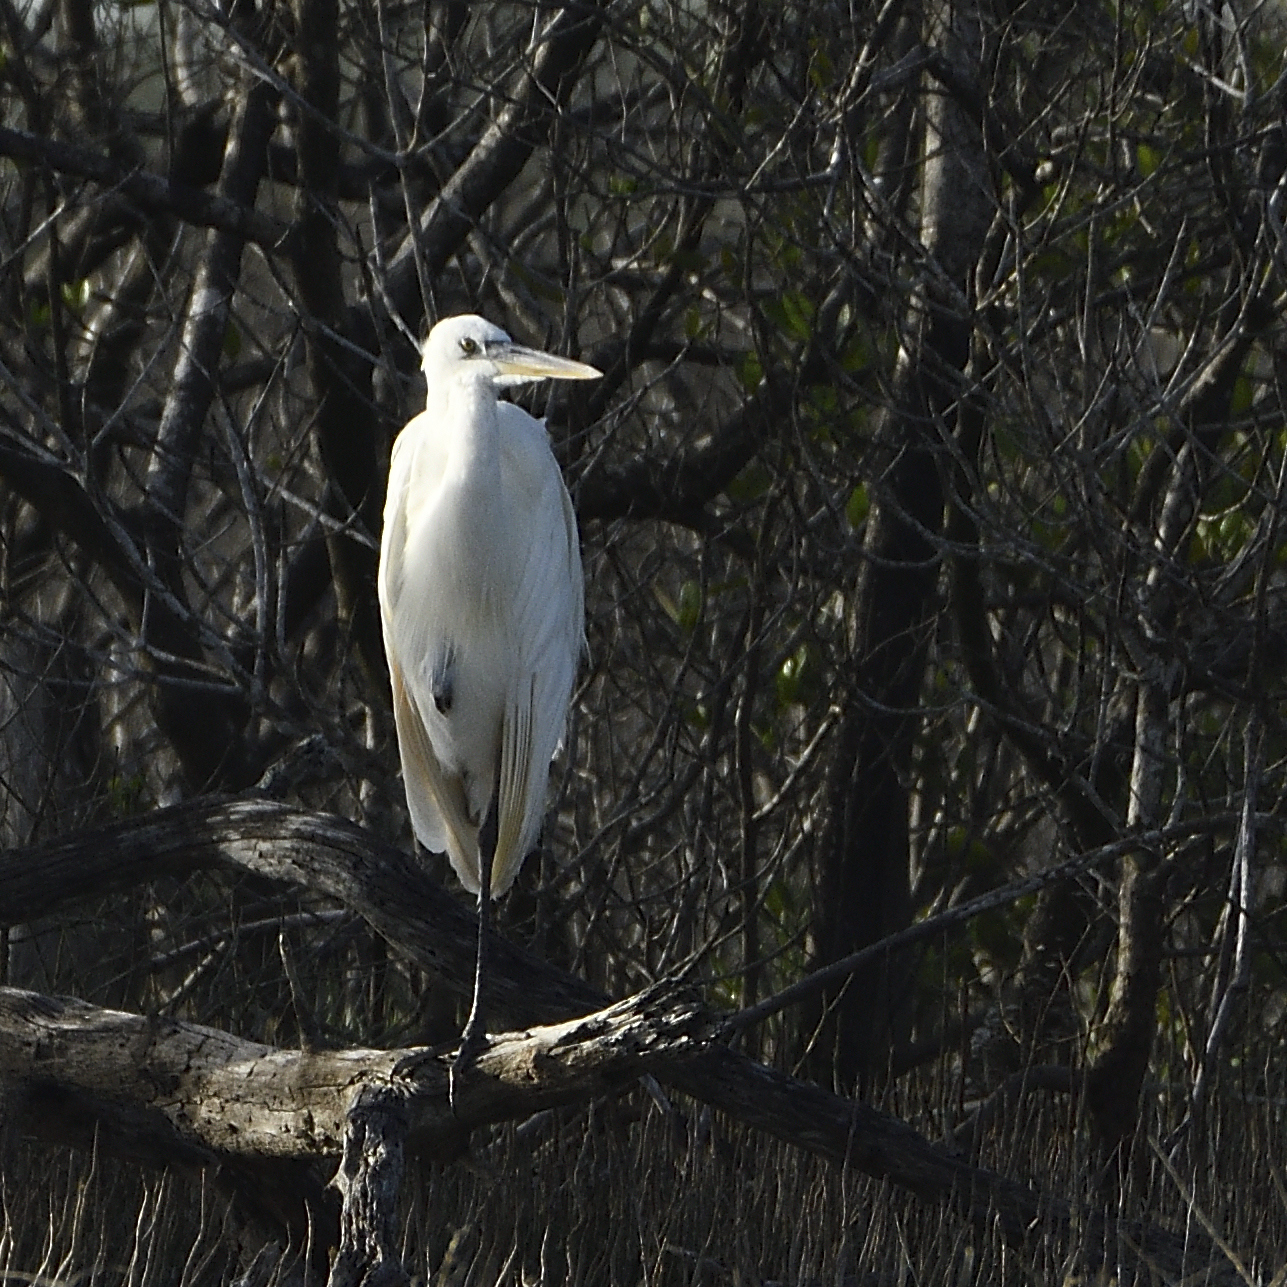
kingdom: Animalia
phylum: Chordata
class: Aves
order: Pelecaniformes
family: Ardeidae
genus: Ardea
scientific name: Ardea herodias
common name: Great blue heron
